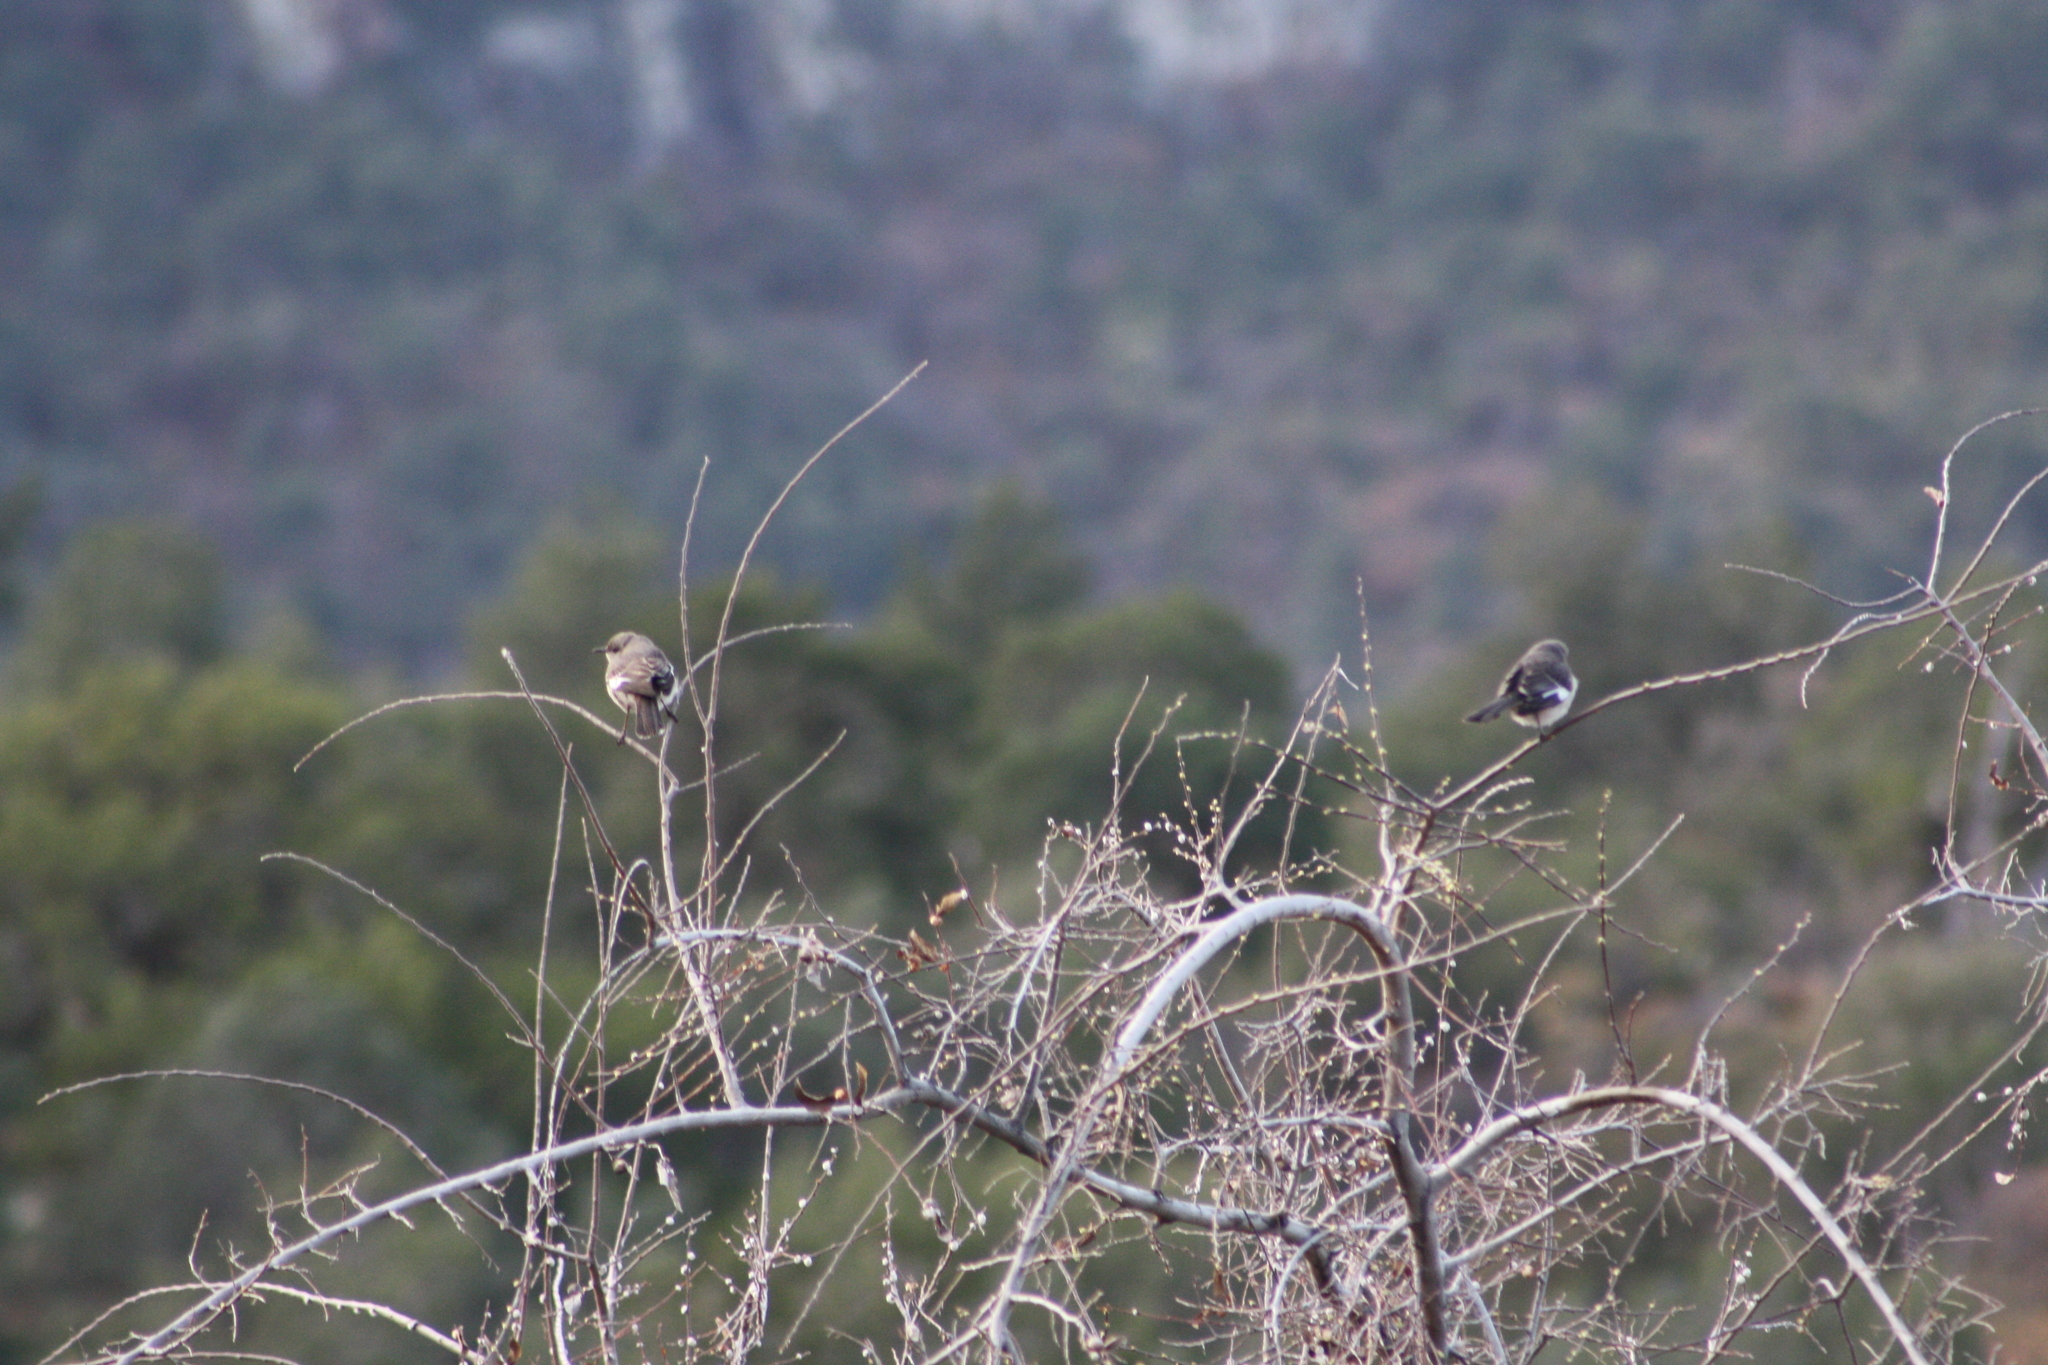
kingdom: Animalia
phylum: Chordata
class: Aves
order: Passeriformes
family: Mimidae
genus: Mimus
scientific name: Mimus polyglottos
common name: Northern mockingbird
